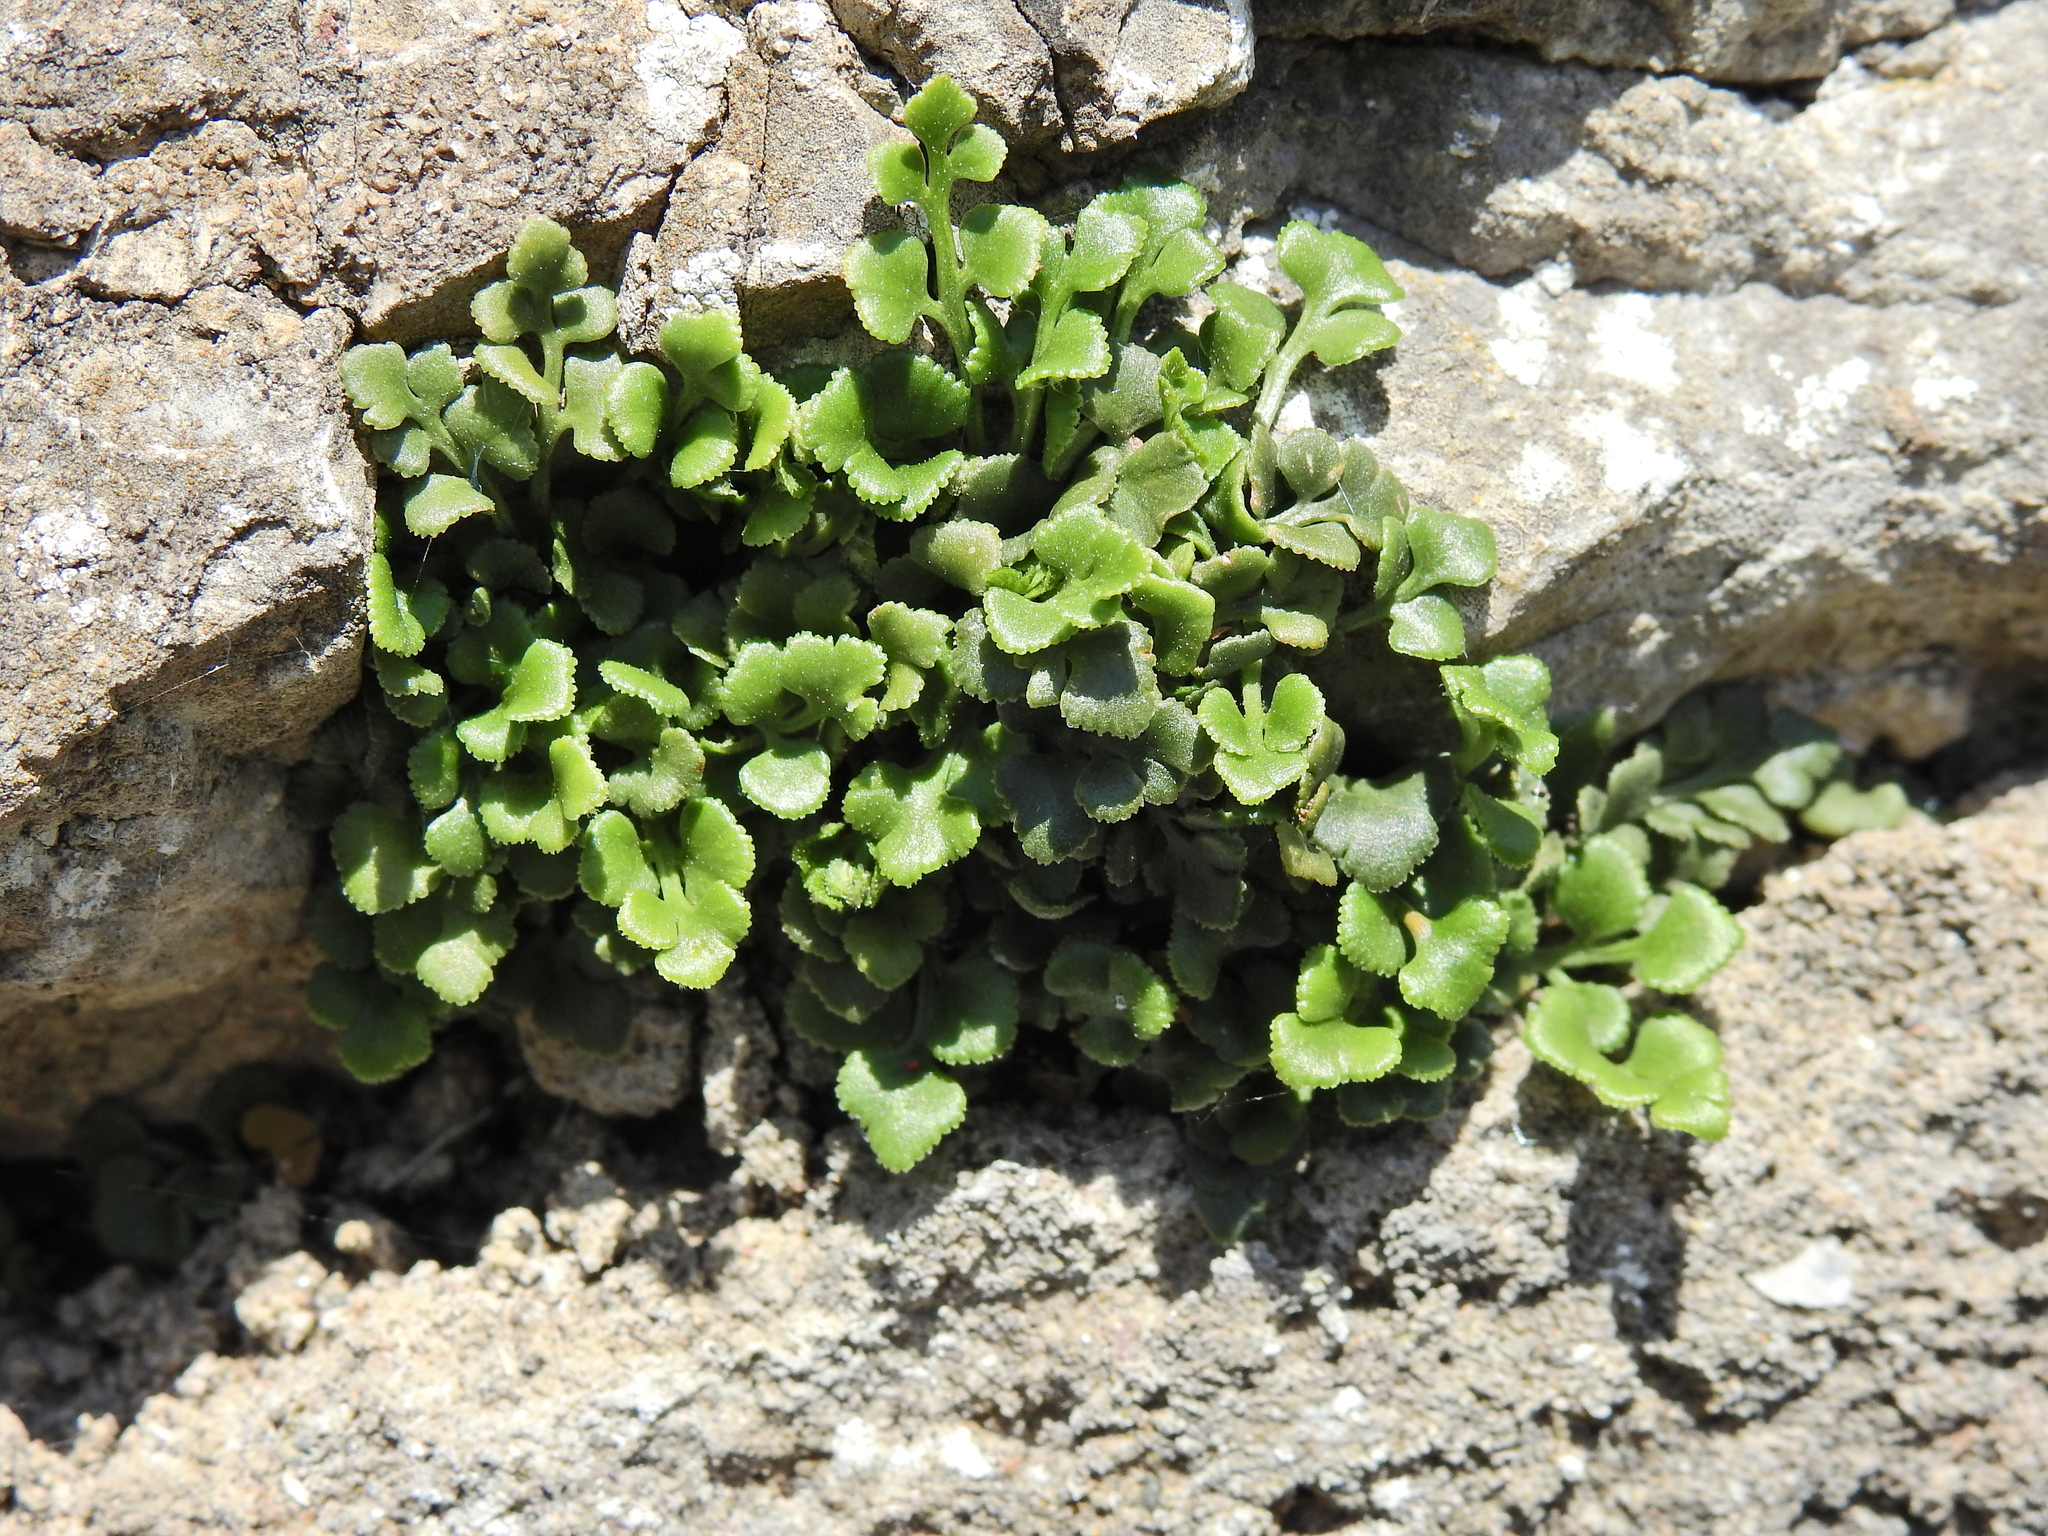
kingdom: Plantae
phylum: Tracheophyta
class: Polypodiopsida
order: Polypodiales
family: Aspleniaceae
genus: Asplenium
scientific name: Asplenium ruta-muraria
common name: Wall-rue
